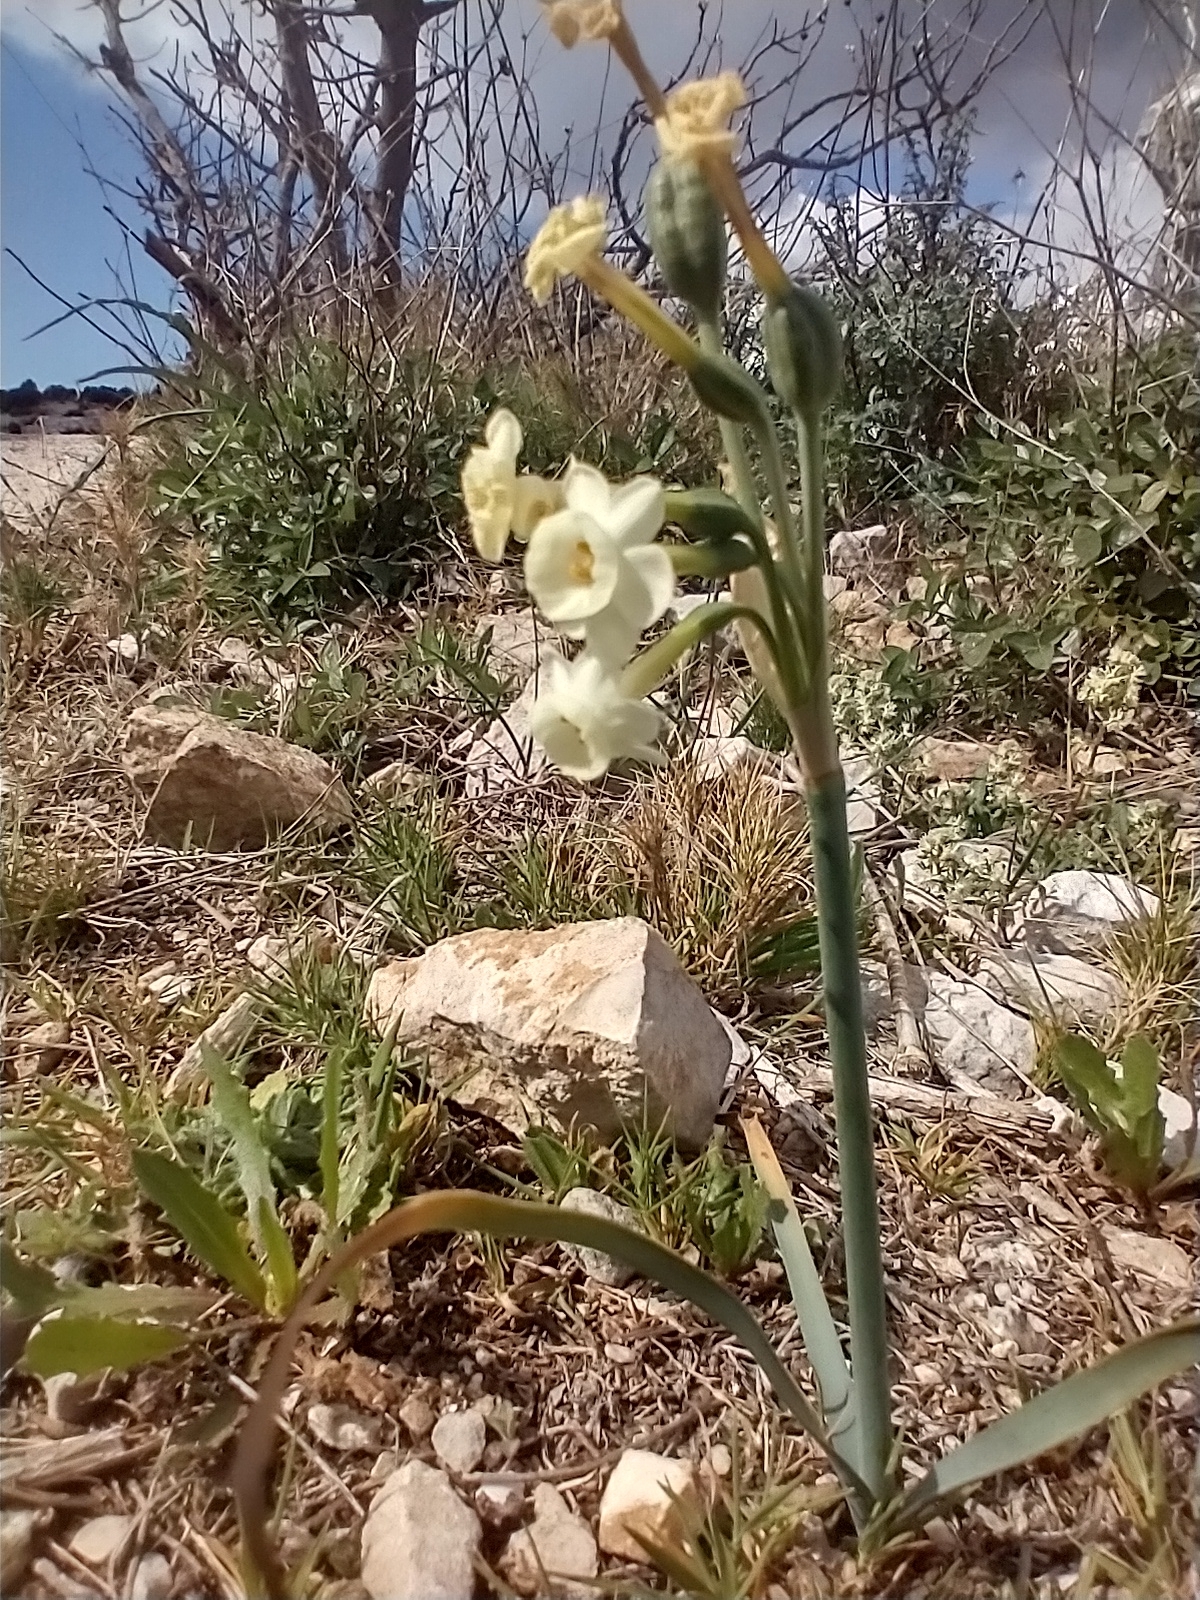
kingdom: Plantae
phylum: Tracheophyta
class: Liliopsida
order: Asparagales
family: Amaryllidaceae
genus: Narcissus
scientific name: Narcissus dubius
